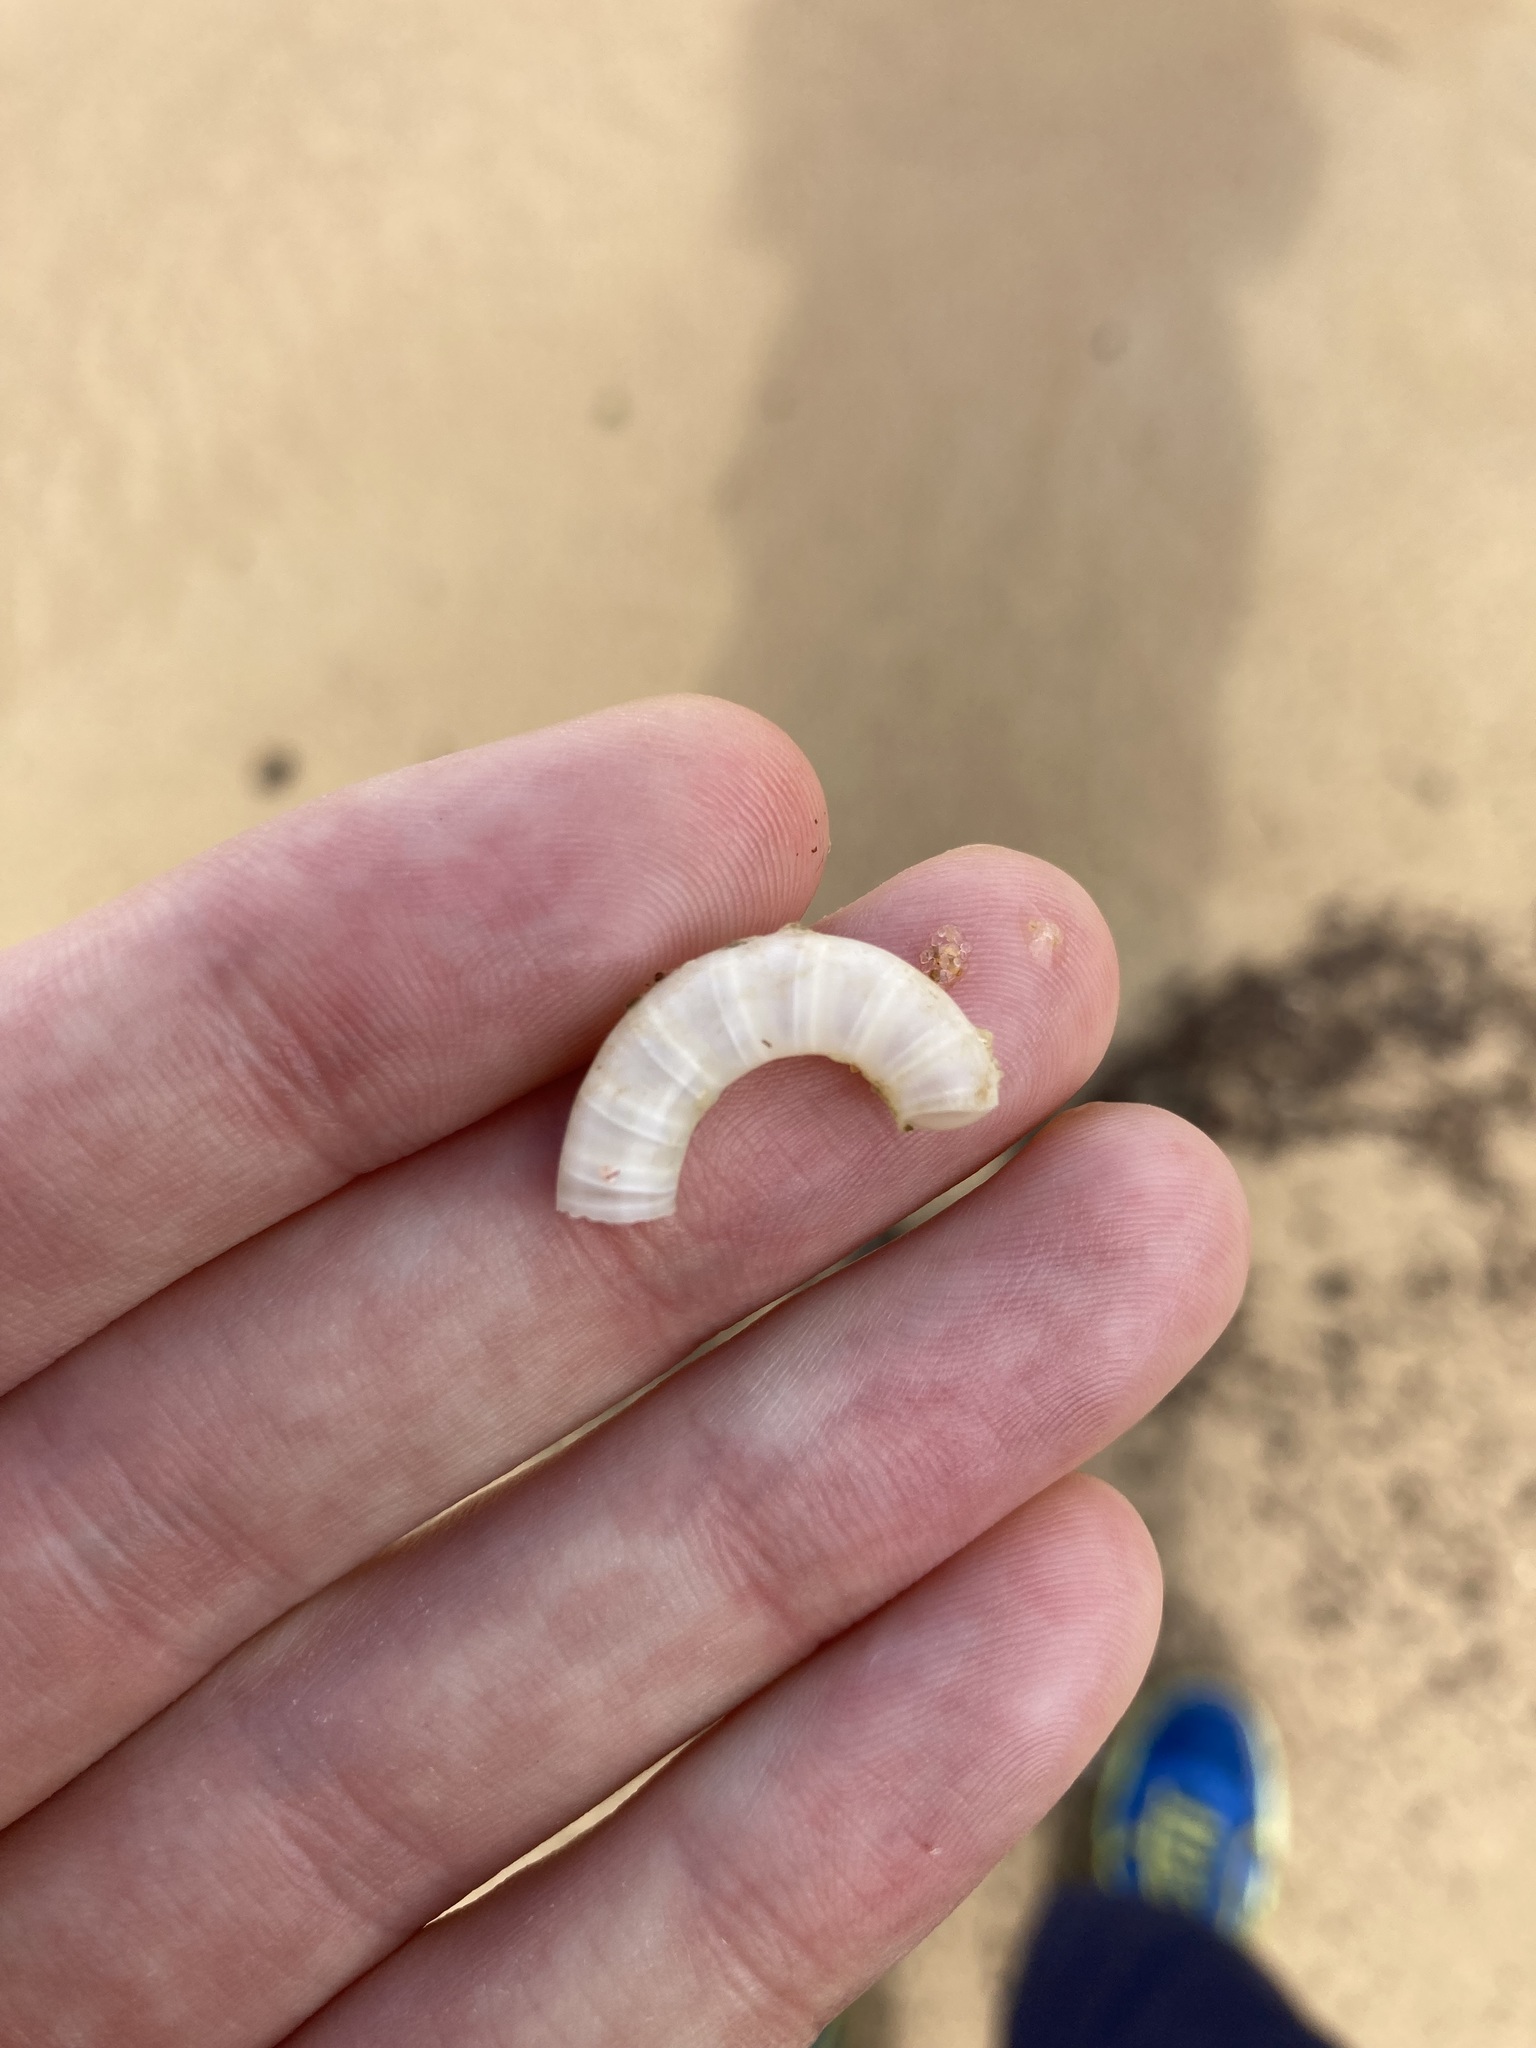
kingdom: Animalia
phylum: Mollusca
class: Cephalopoda
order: Spirulida
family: Spirulidae
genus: Spirula
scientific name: Spirula spirula
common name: Ram's horn squid
